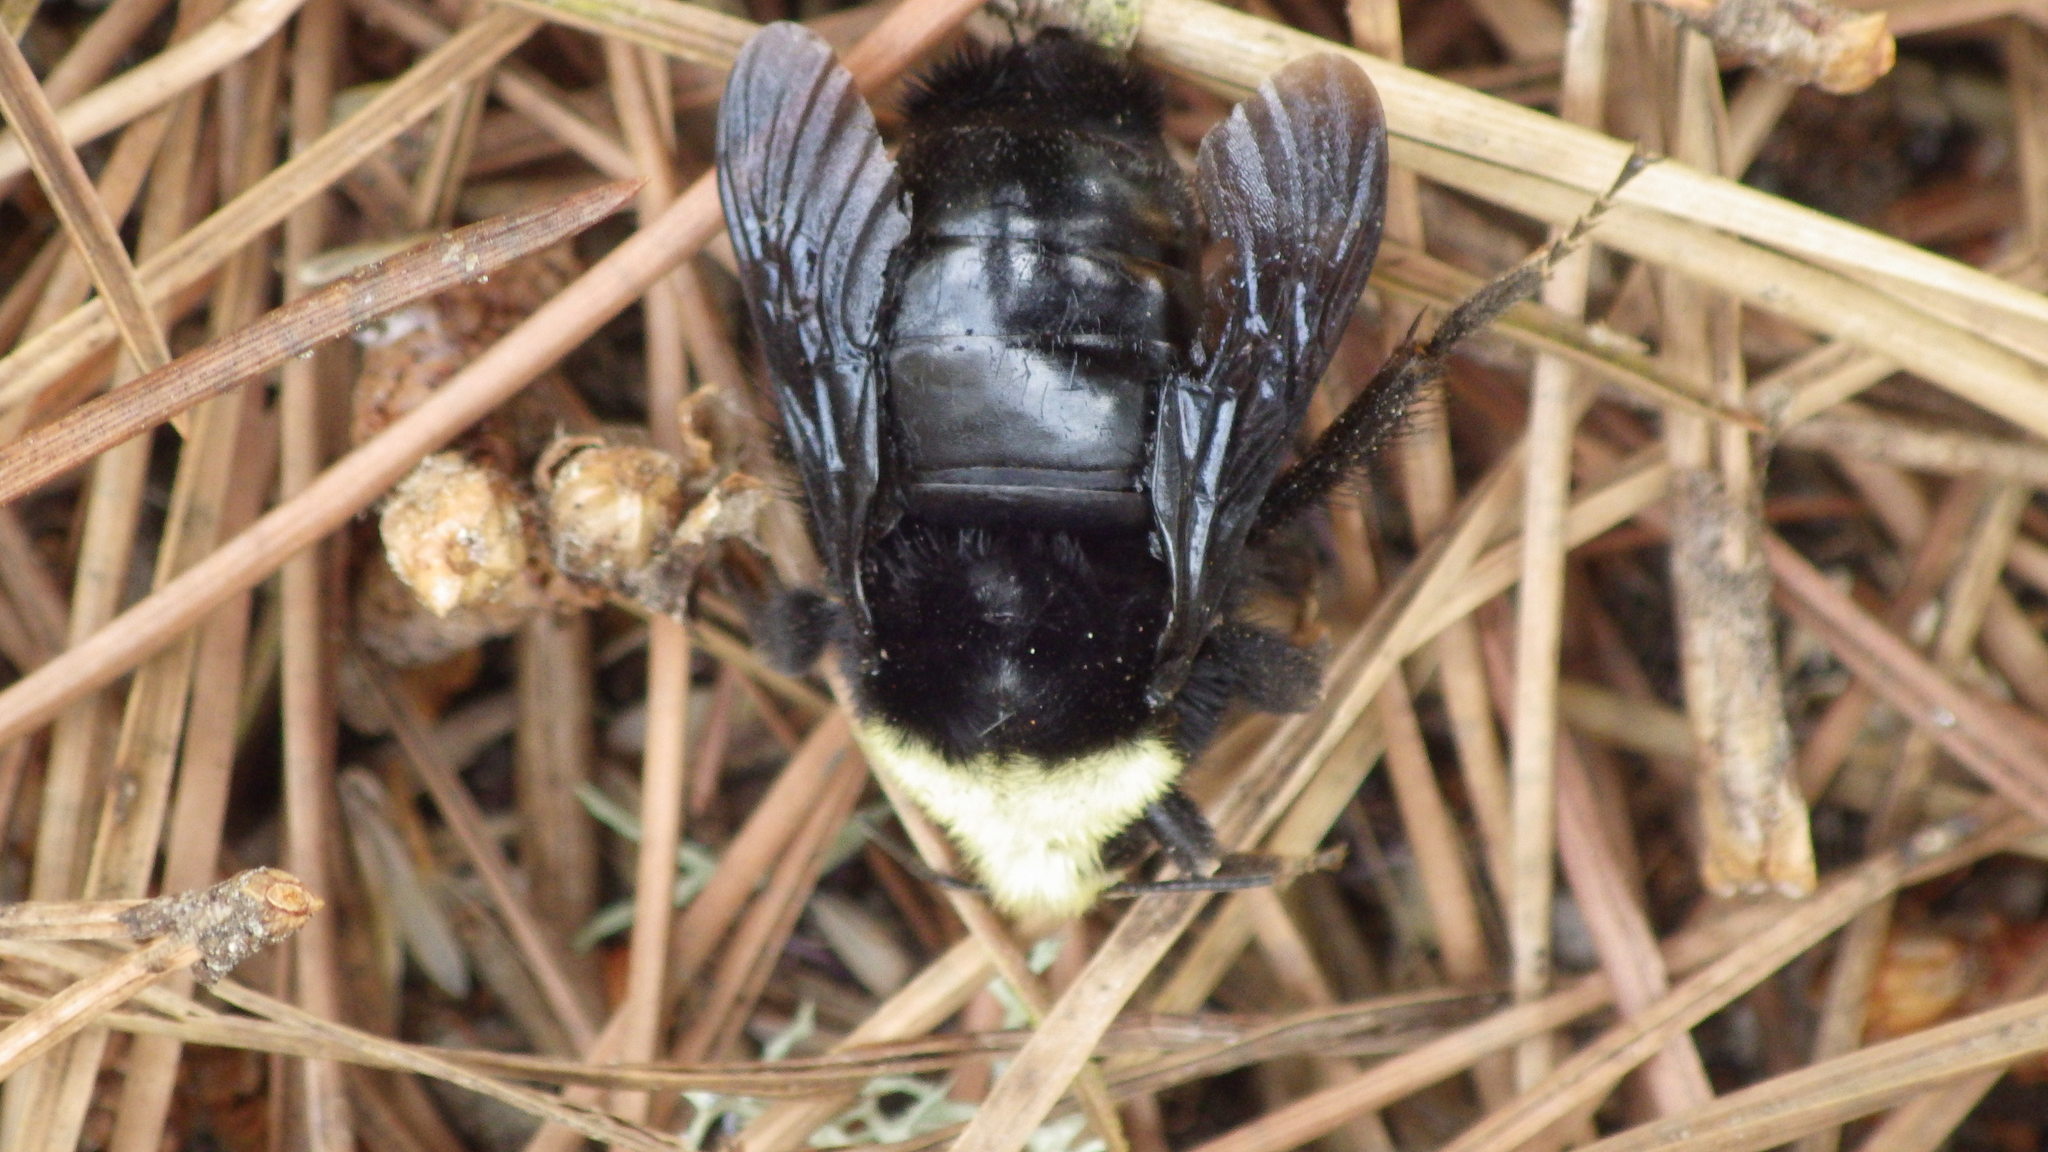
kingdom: Animalia
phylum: Arthropoda
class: Insecta
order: Hymenoptera
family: Apidae
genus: Bombus
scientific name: Bombus vosnesenskii
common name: Vosnesensky bumble bee
